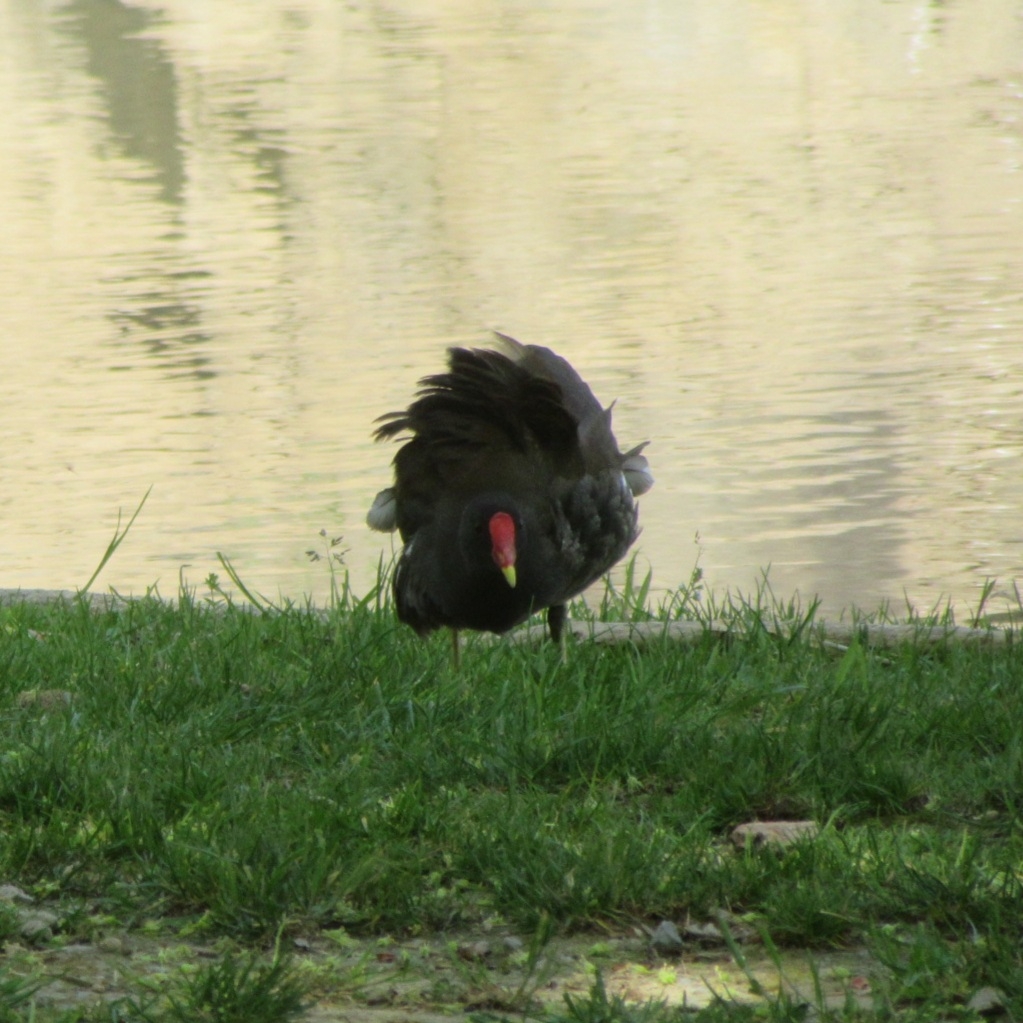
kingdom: Animalia
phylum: Chordata
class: Aves
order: Gruiformes
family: Rallidae
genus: Gallinula
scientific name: Gallinula chloropus
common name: Common moorhen
